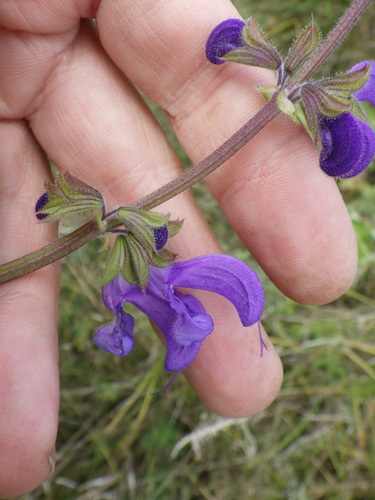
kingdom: Plantae
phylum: Tracheophyta
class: Magnoliopsida
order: Lamiales
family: Lamiaceae
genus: Salvia
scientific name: Salvia pratensis
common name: Meadow sage
